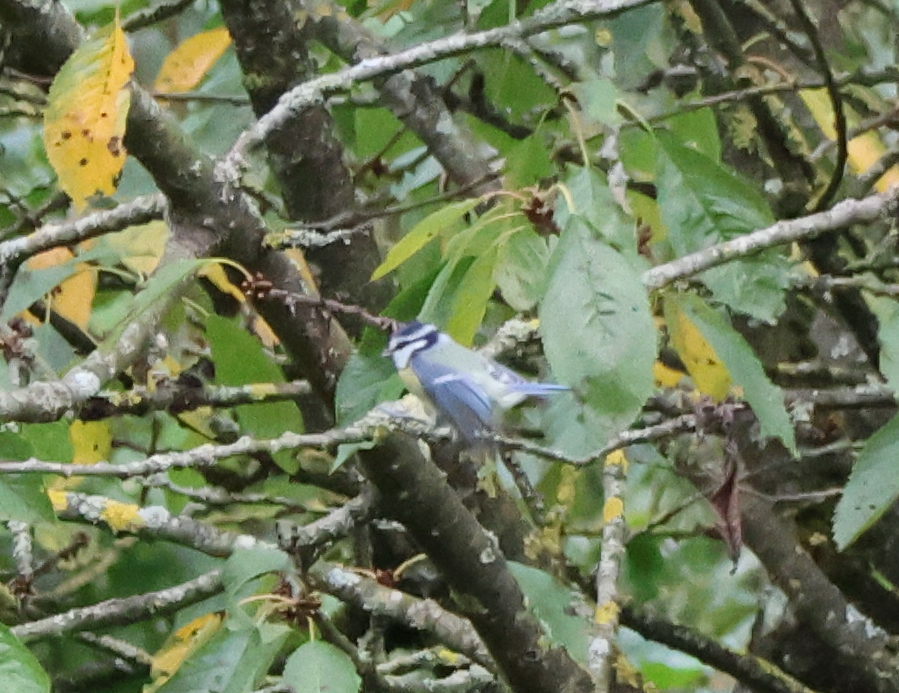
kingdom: Animalia
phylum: Chordata
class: Aves
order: Passeriformes
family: Paridae
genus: Cyanistes
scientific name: Cyanistes caeruleus
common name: Eurasian blue tit
